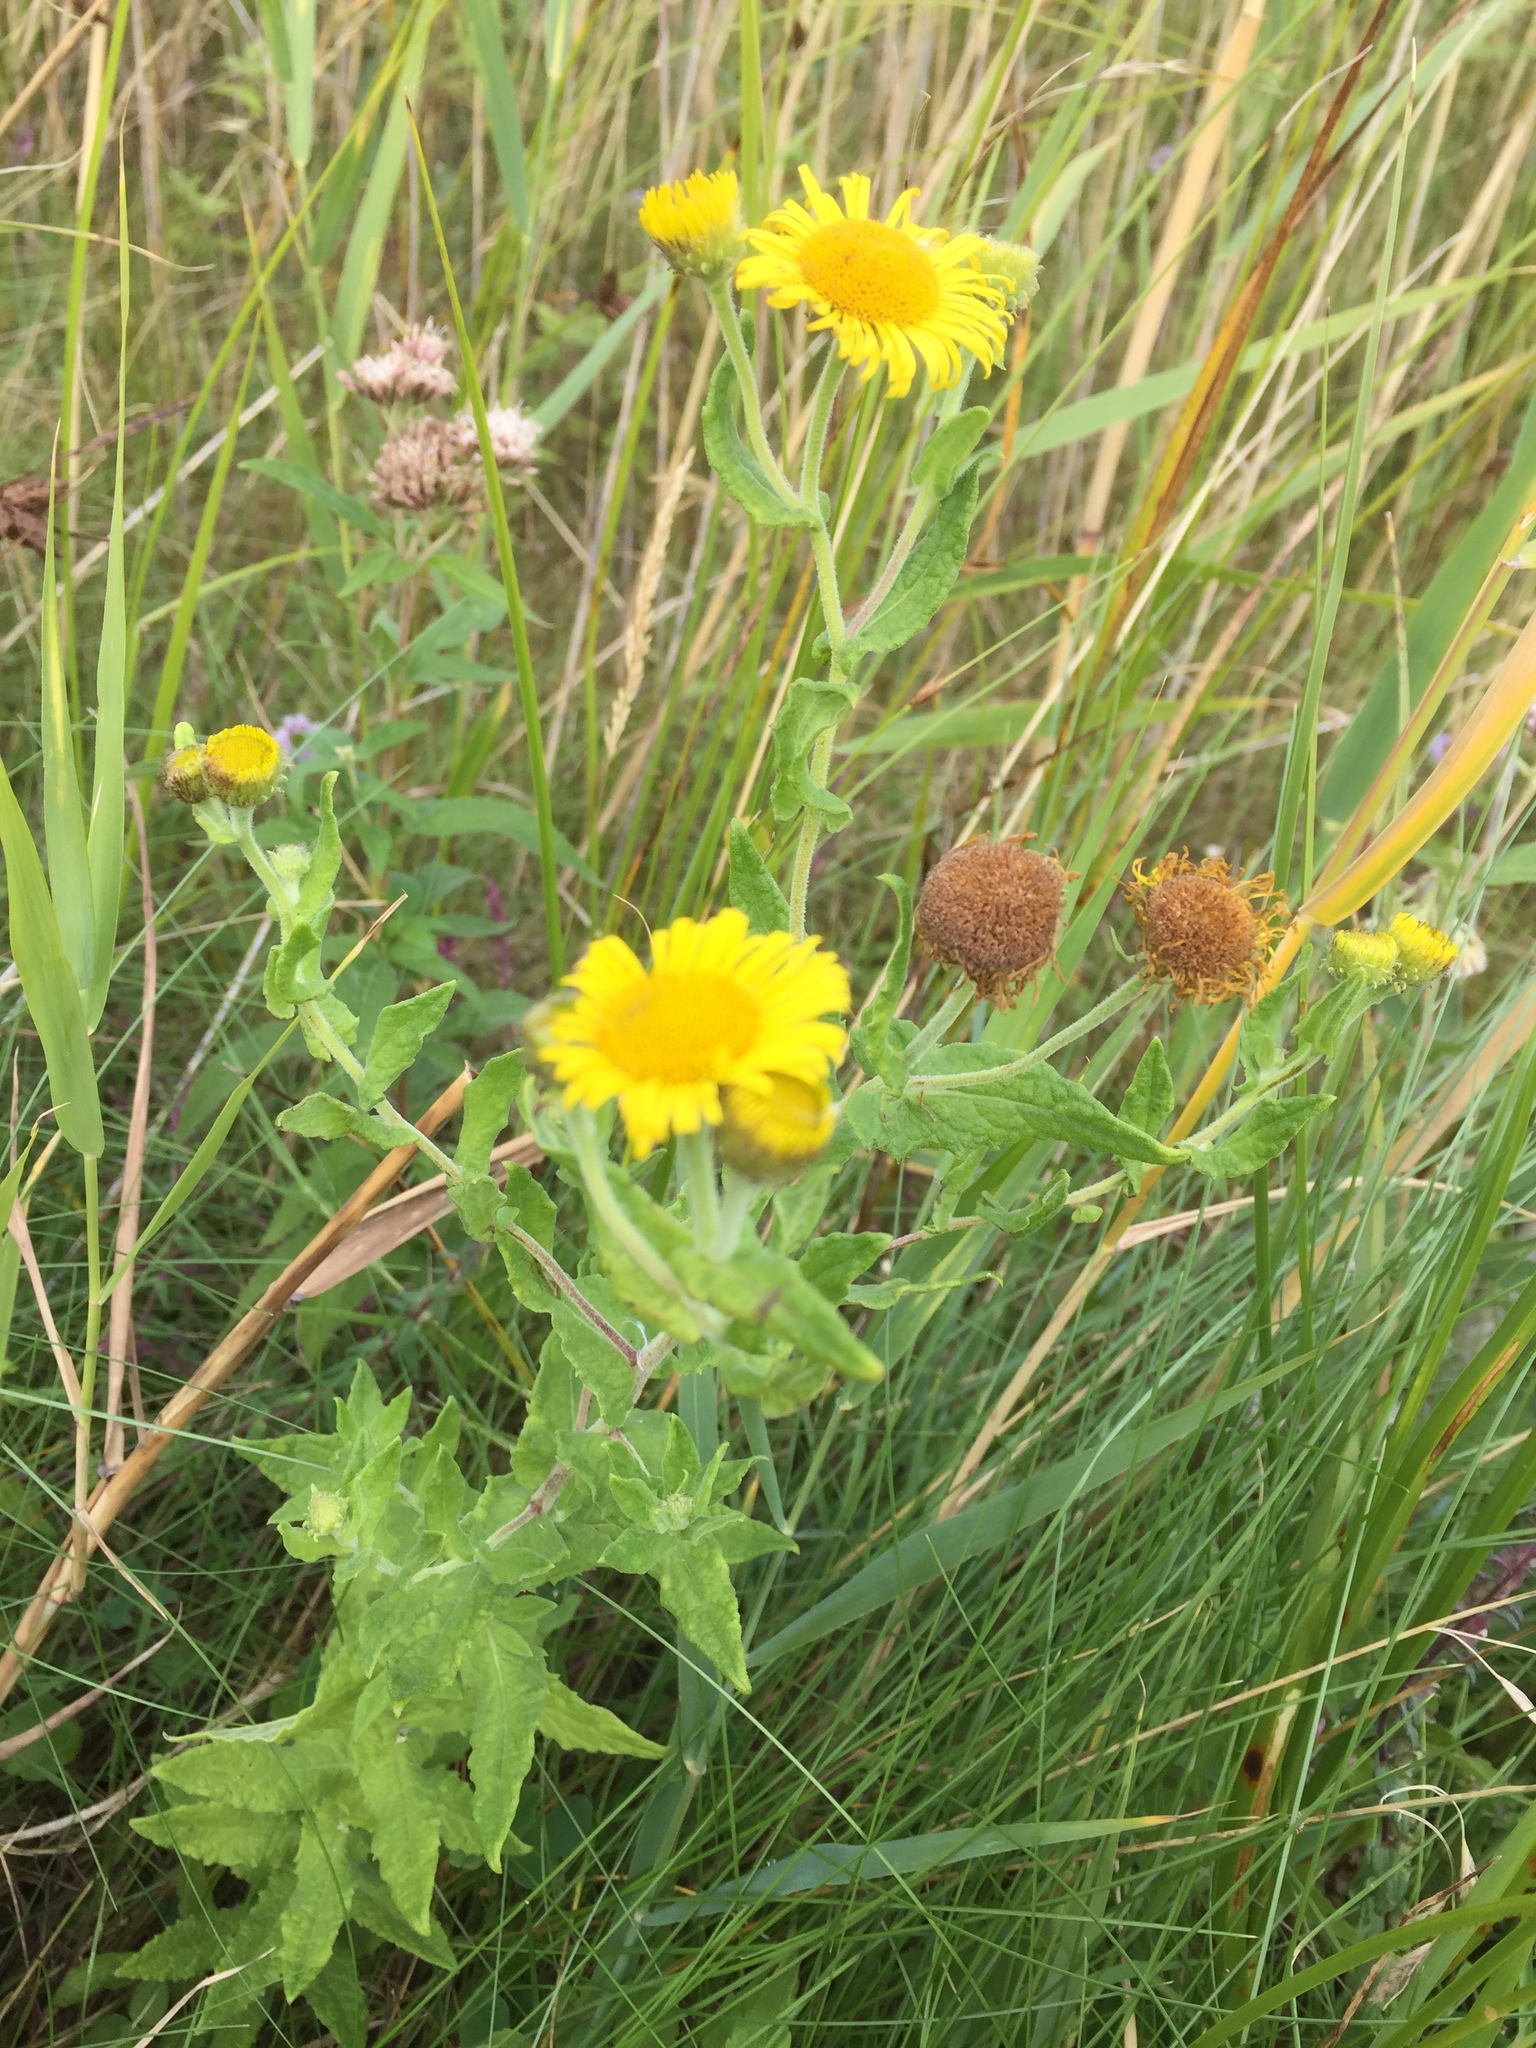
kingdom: Plantae
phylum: Tracheophyta
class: Magnoliopsida
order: Asterales
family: Asteraceae
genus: Pulicaria
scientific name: Pulicaria dysenterica
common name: Common fleabane
